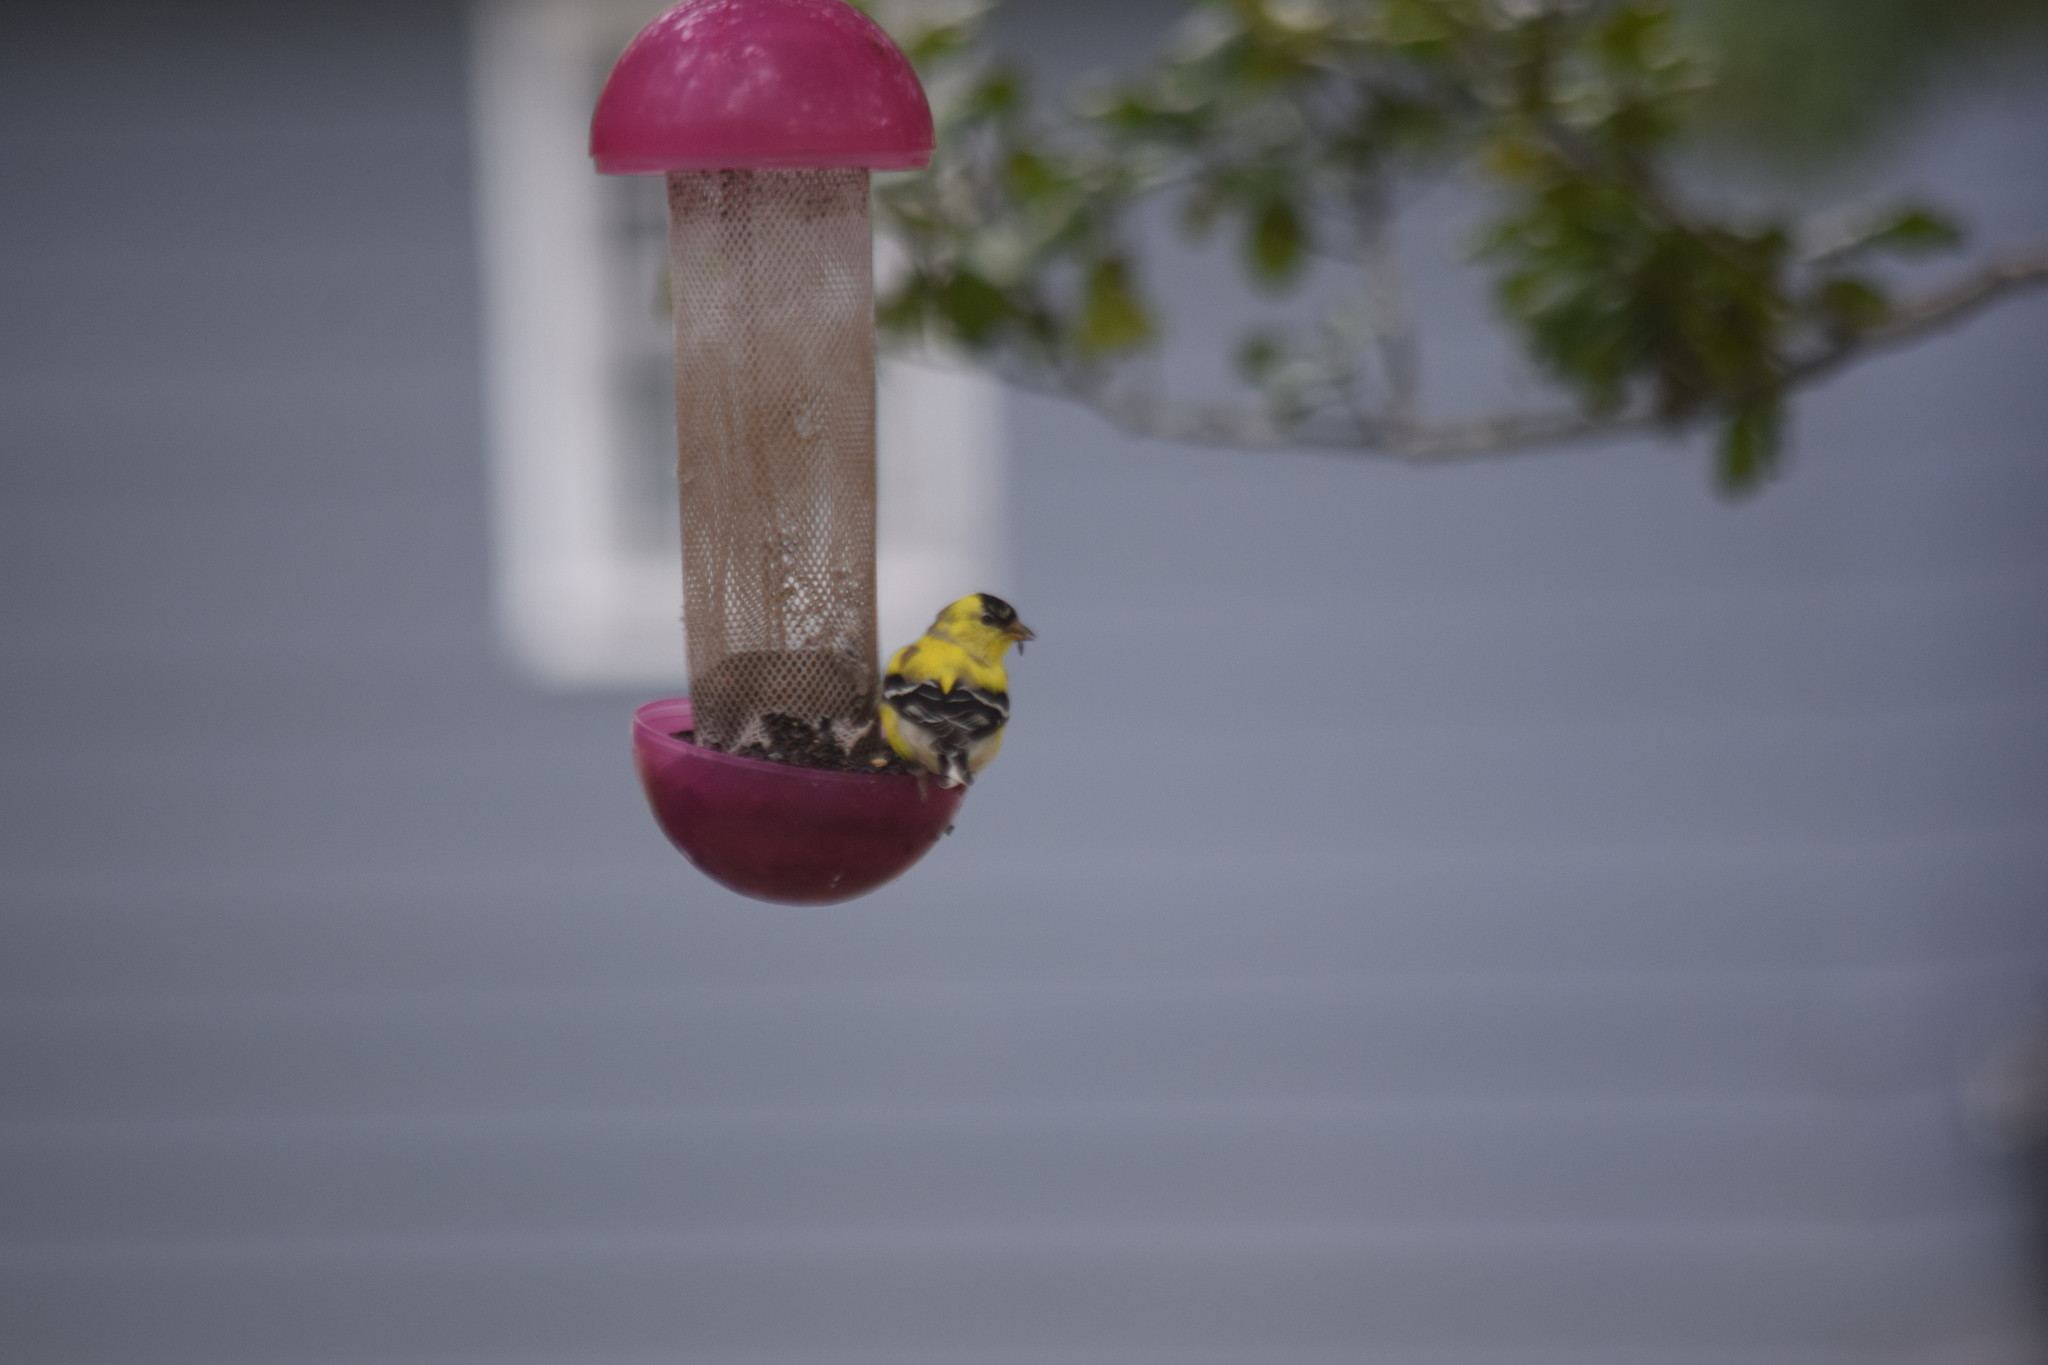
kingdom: Animalia
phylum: Chordata
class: Aves
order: Passeriformes
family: Fringillidae
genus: Spinus
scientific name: Spinus tristis
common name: American goldfinch
